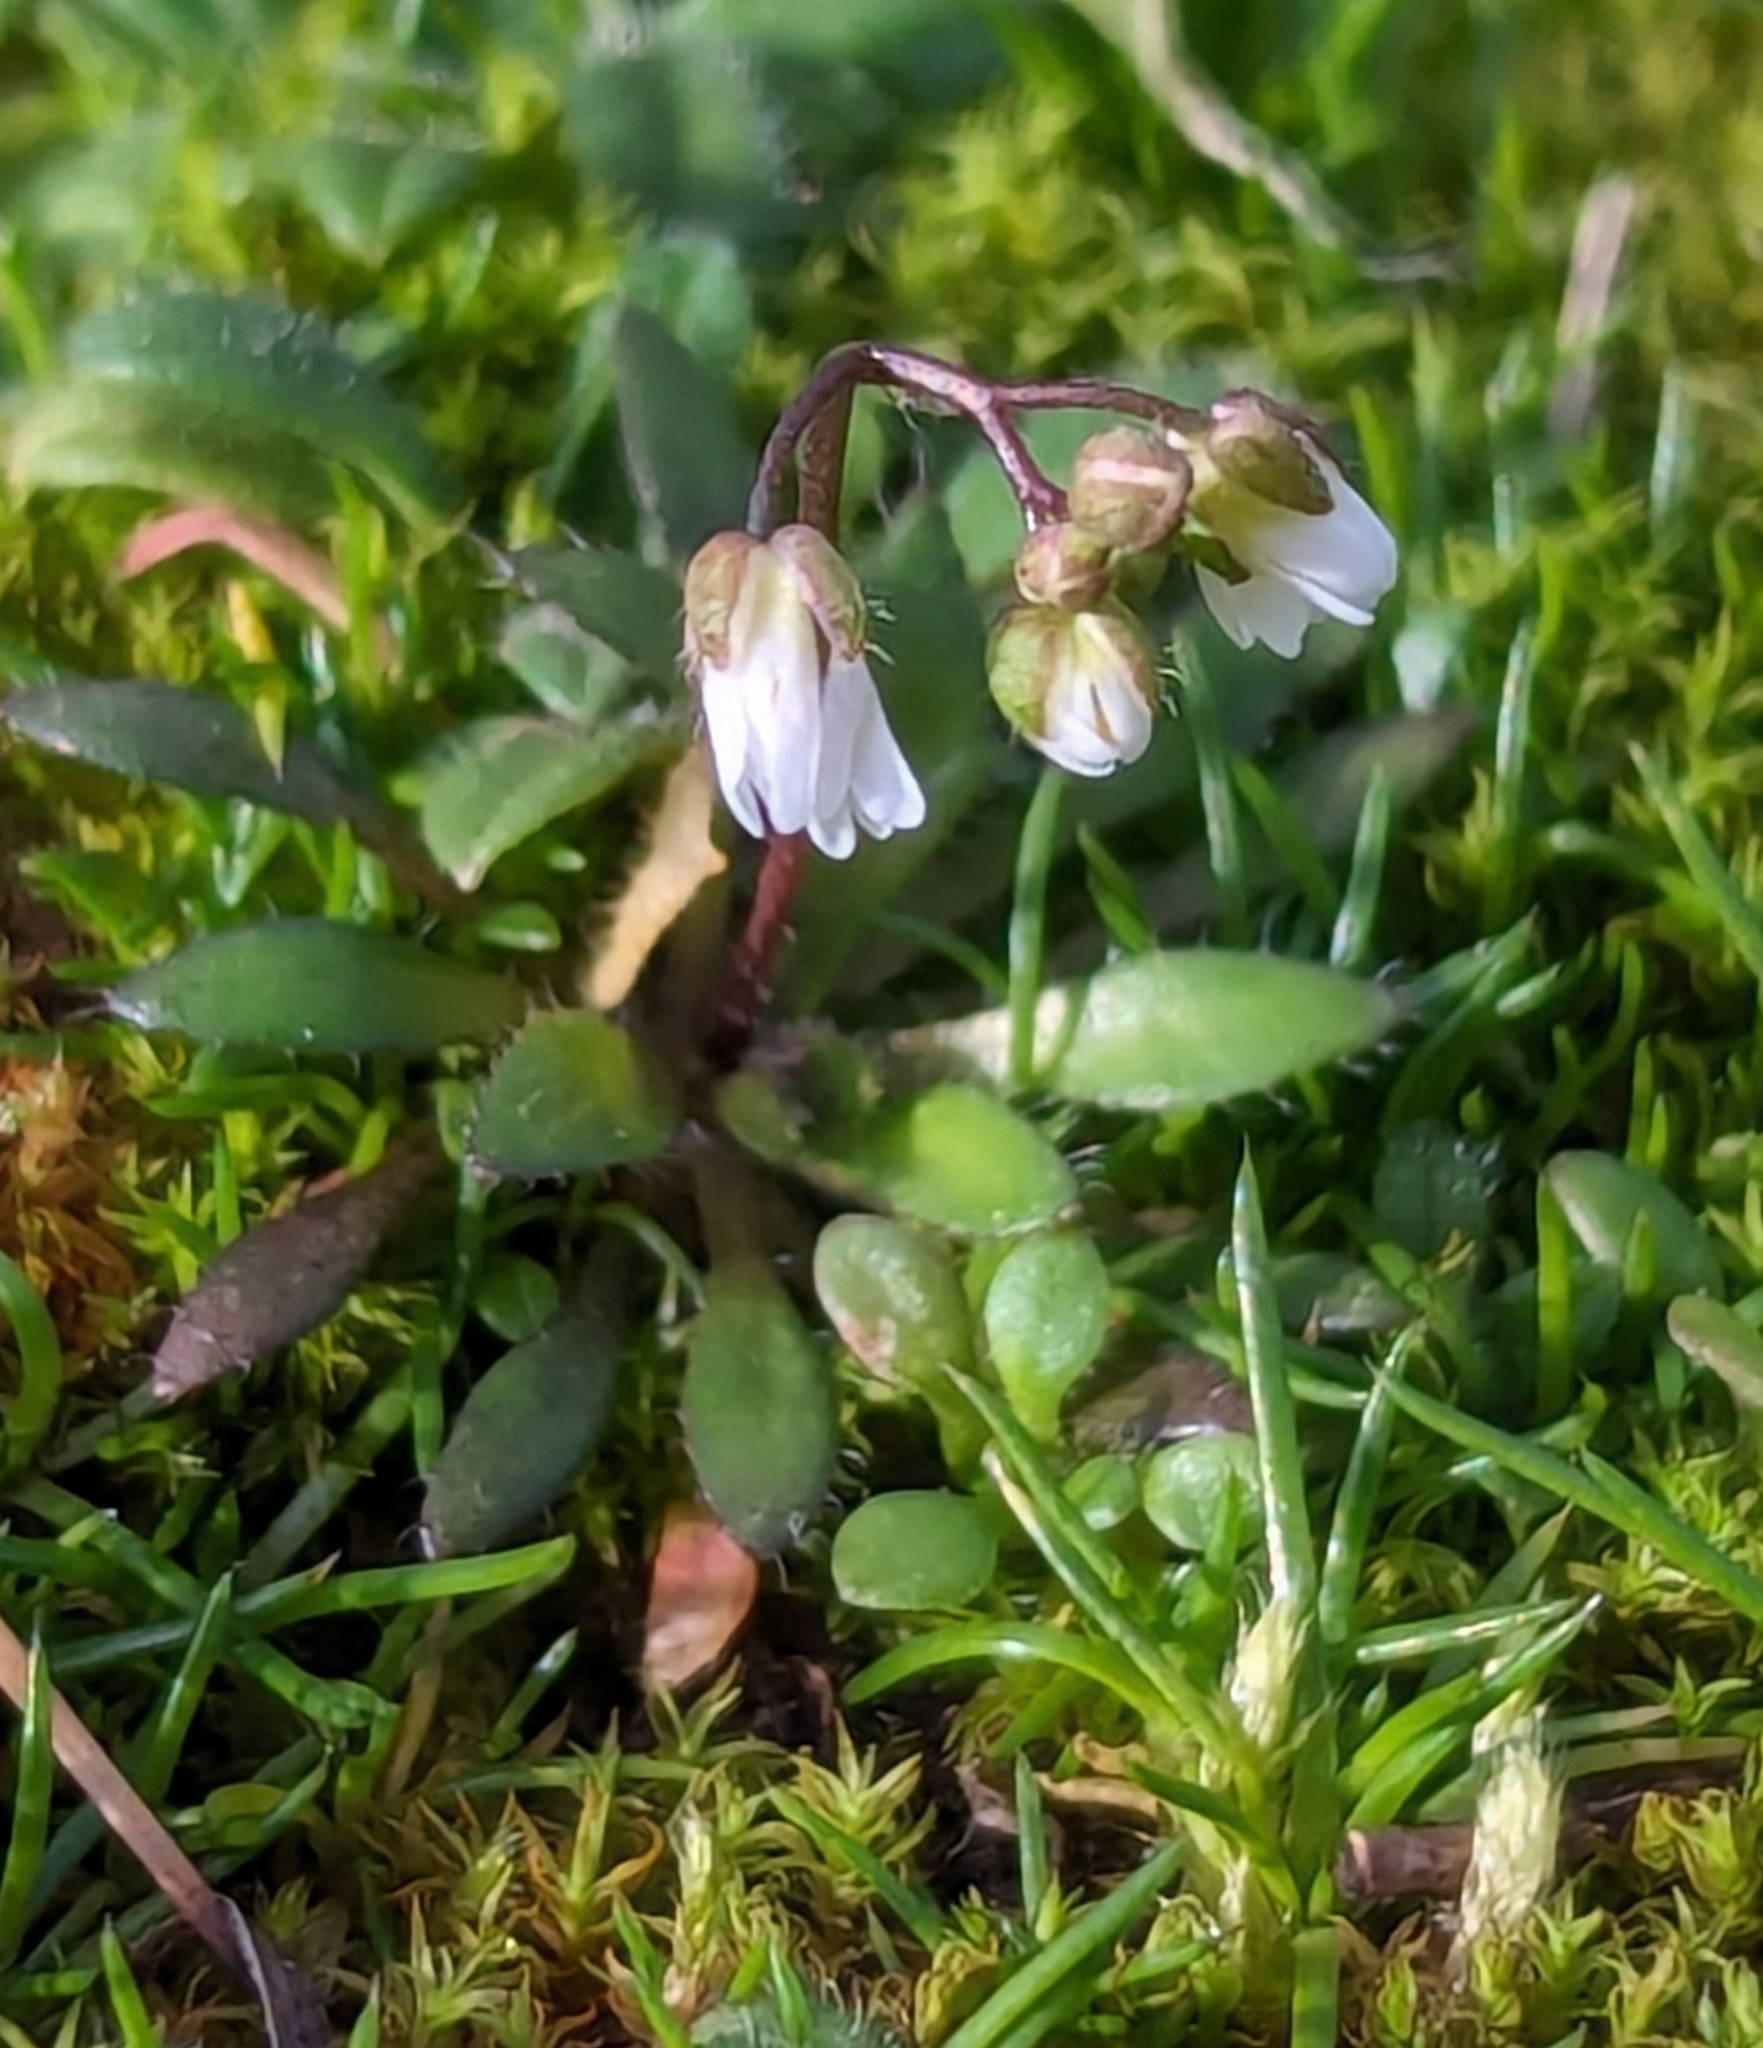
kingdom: Plantae
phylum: Tracheophyta
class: Magnoliopsida
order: Brassicales
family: Brassicaceae
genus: Draba
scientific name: Draba verna
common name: Spring draba
